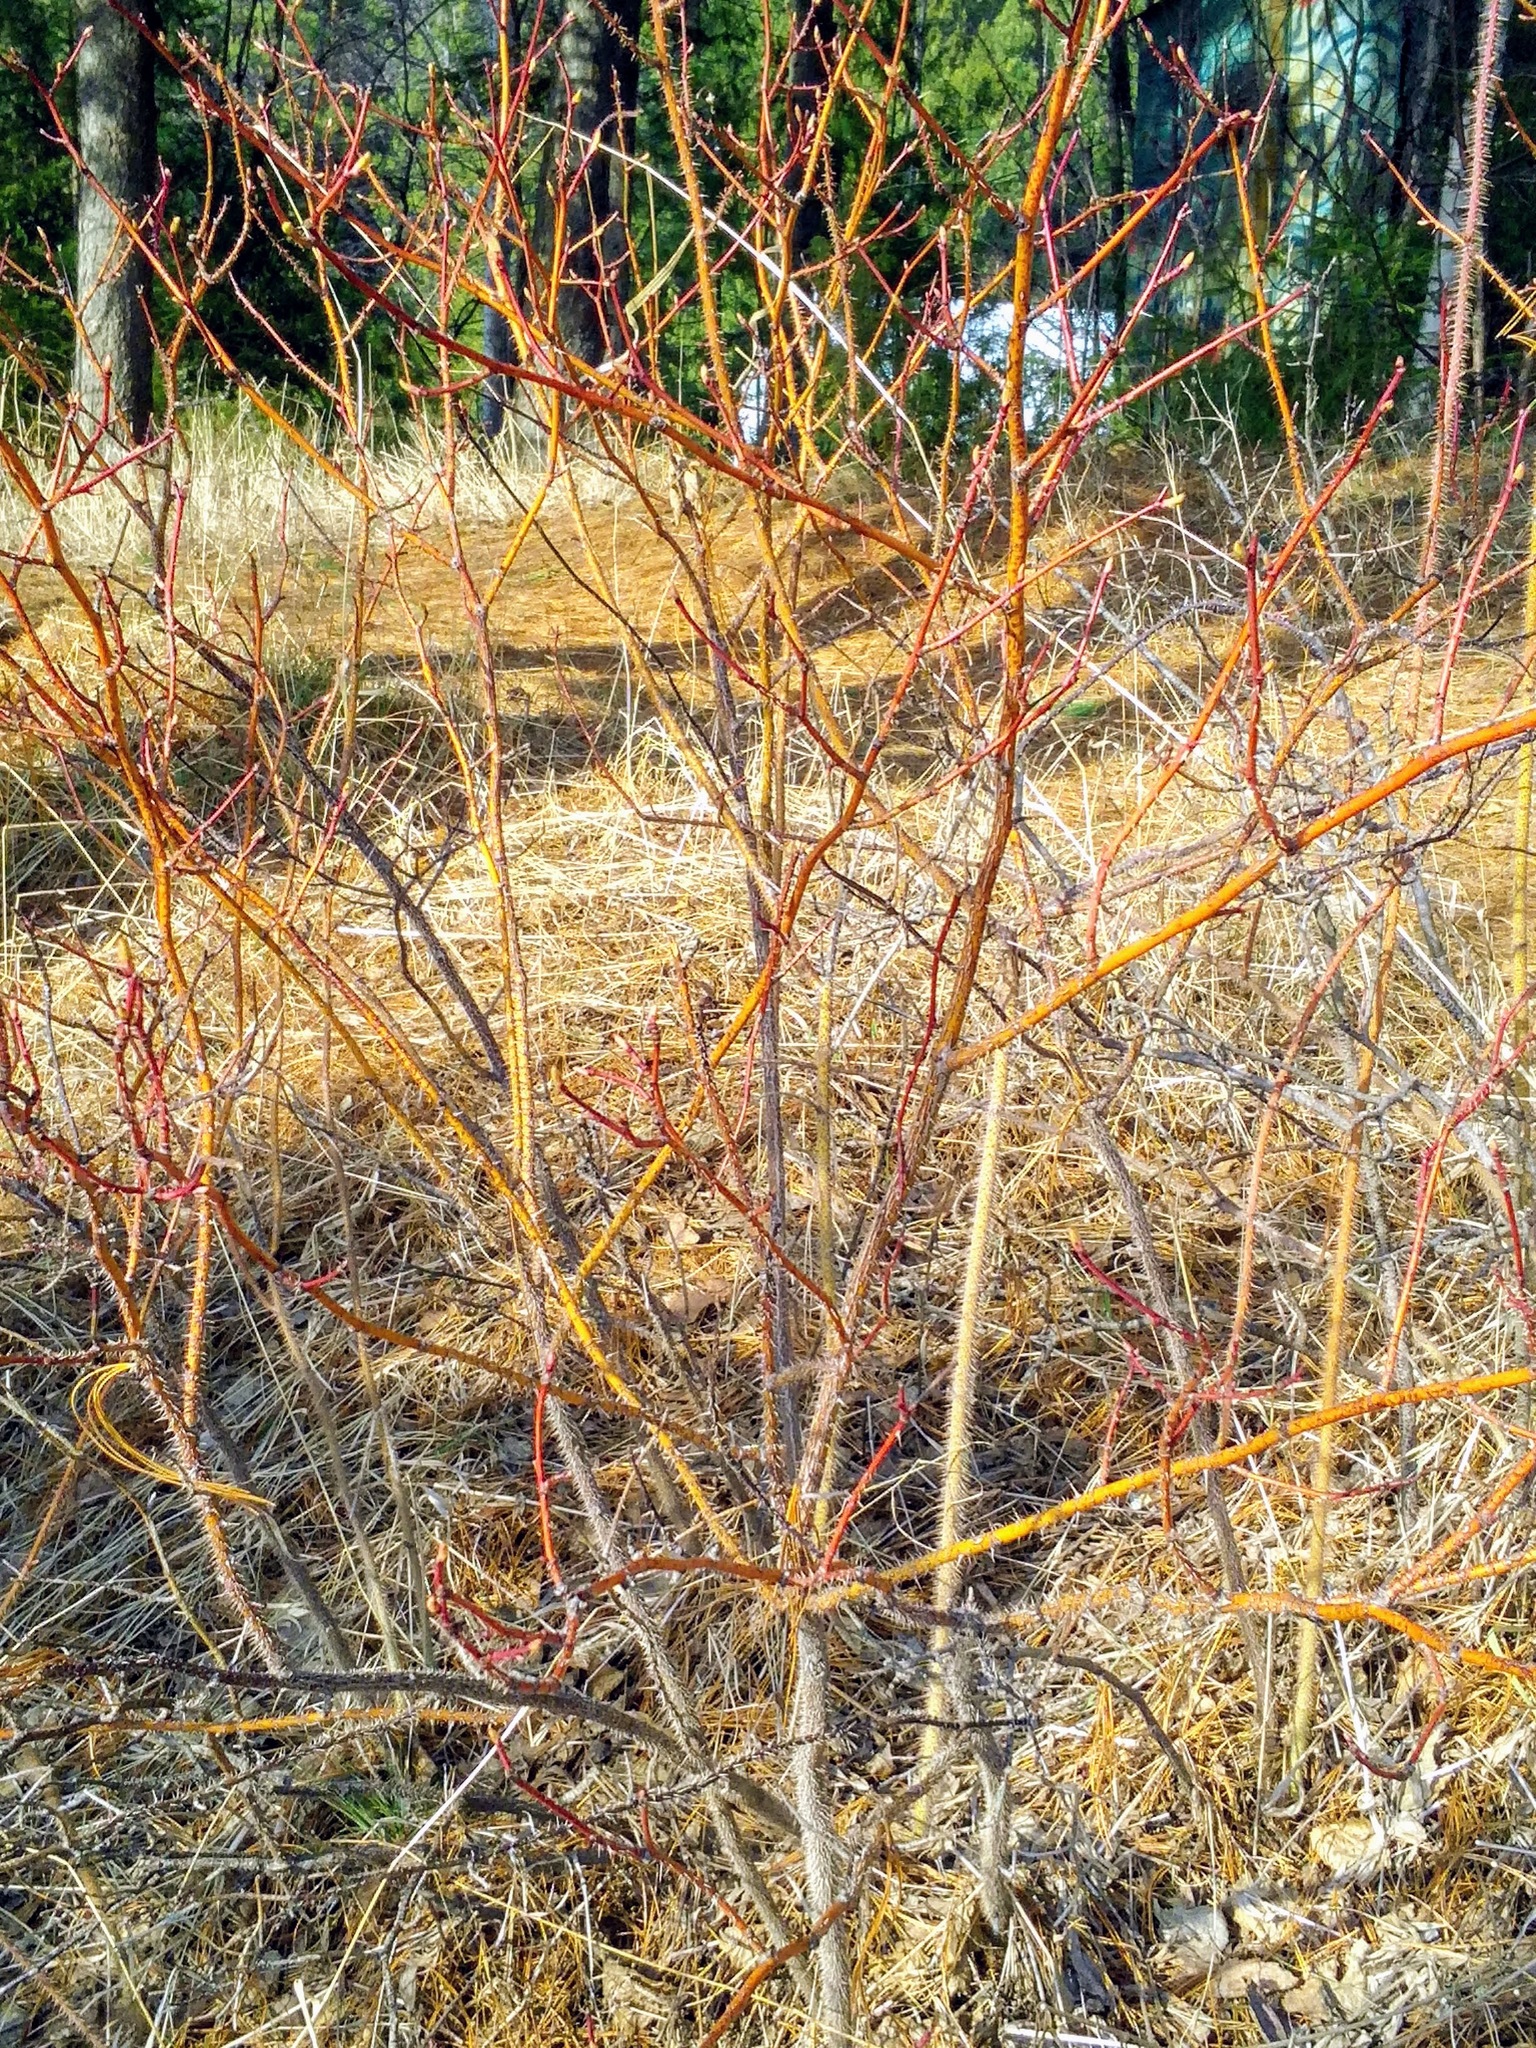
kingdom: Plantae
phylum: Tracheophyta
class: Magnoliopsida
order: Rosales
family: Rosaceae
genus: Rosa
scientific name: Rosa acicularis
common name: Prickly rose
